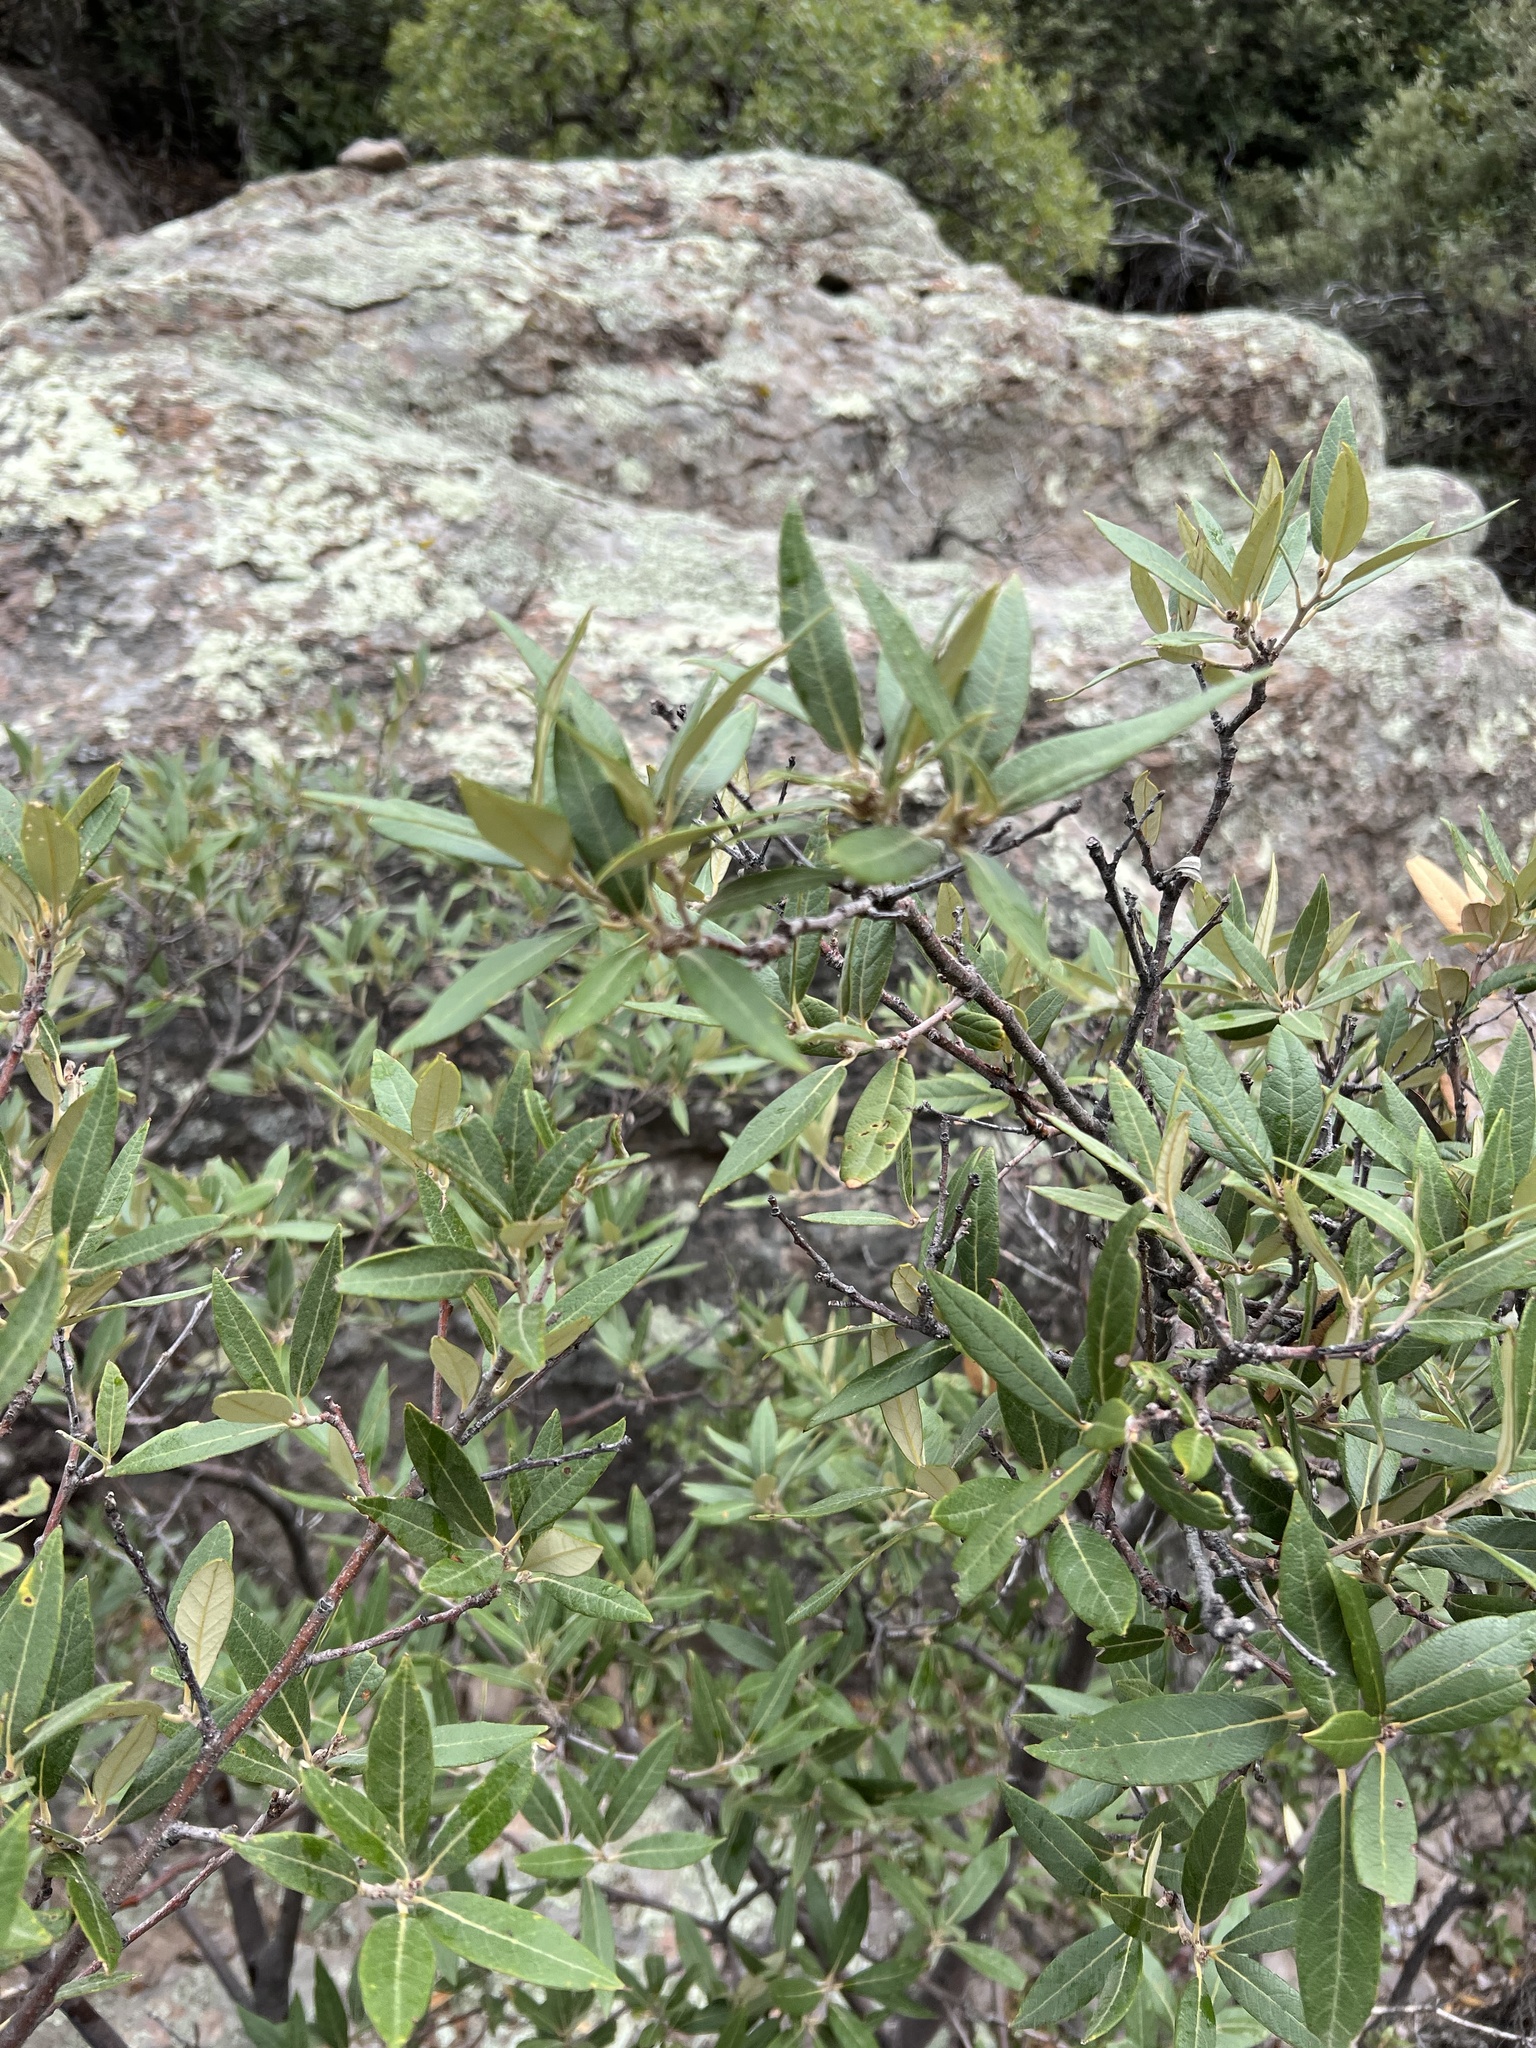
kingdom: Plantae
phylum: Tracheophyta
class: Magnoliopsida
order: Fagales
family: Fagaceae
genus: Quercus
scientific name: Quercus hypoleucoides
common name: Silverleaf oak
